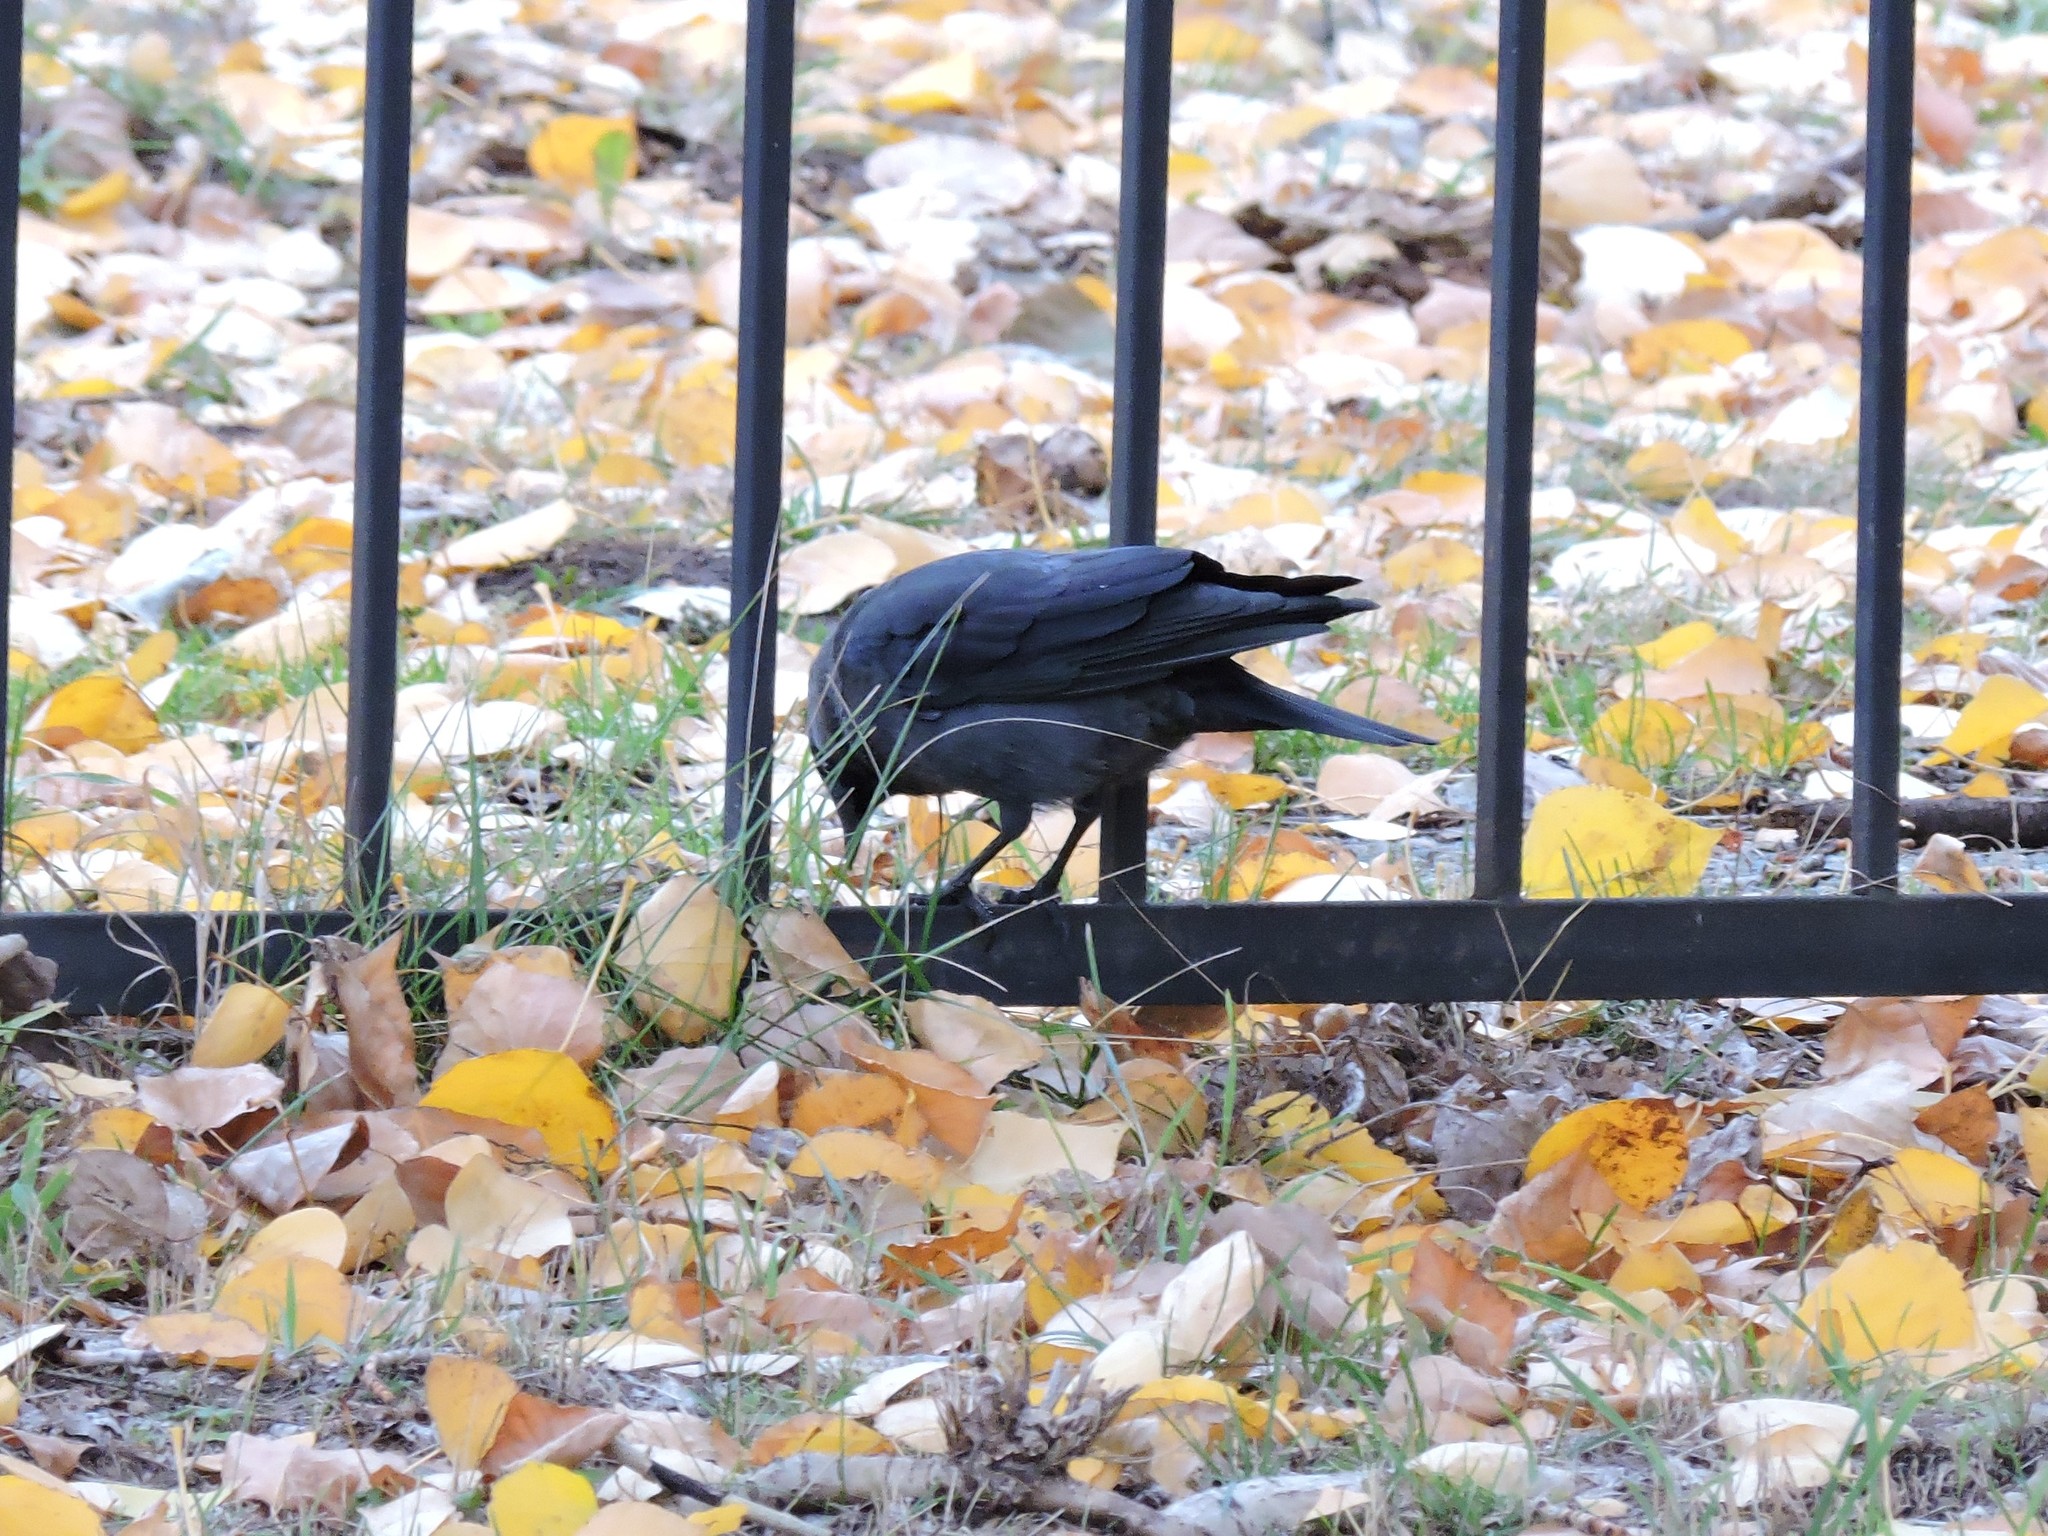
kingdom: Animalia
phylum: Chordata
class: Aves
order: Passeriformes
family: Corvidae
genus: Coloeus
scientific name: Coloeus monedula
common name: Western jackdaw
